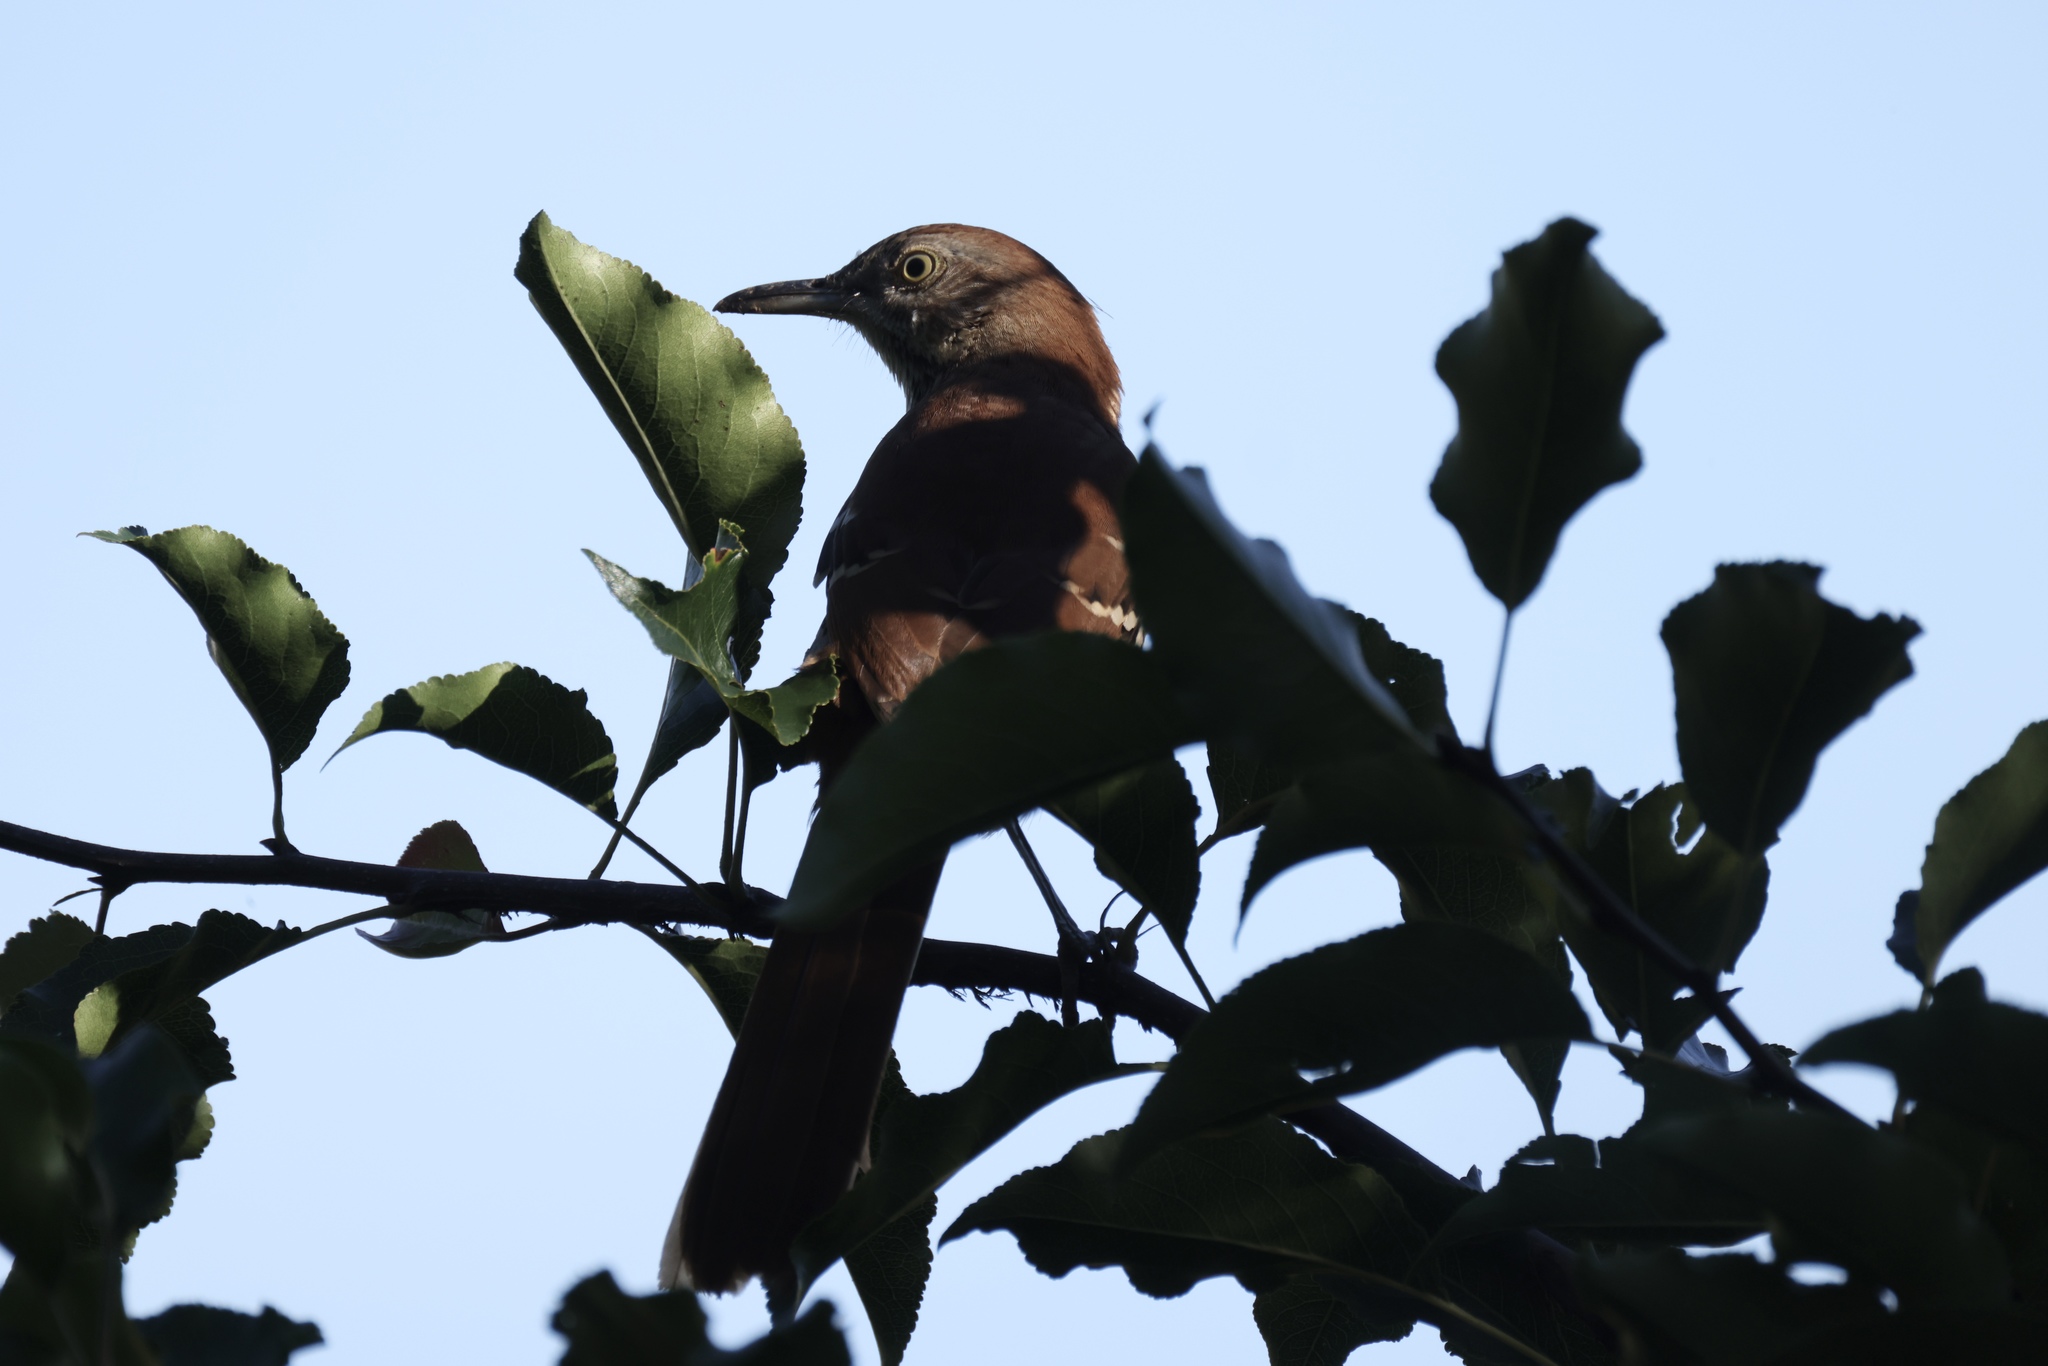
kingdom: Animalia
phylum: Chordata
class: Aves
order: Passeriformes
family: Mimidae
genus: Toxostoma
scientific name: Toxostoma rufum
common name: Brown thrasher
